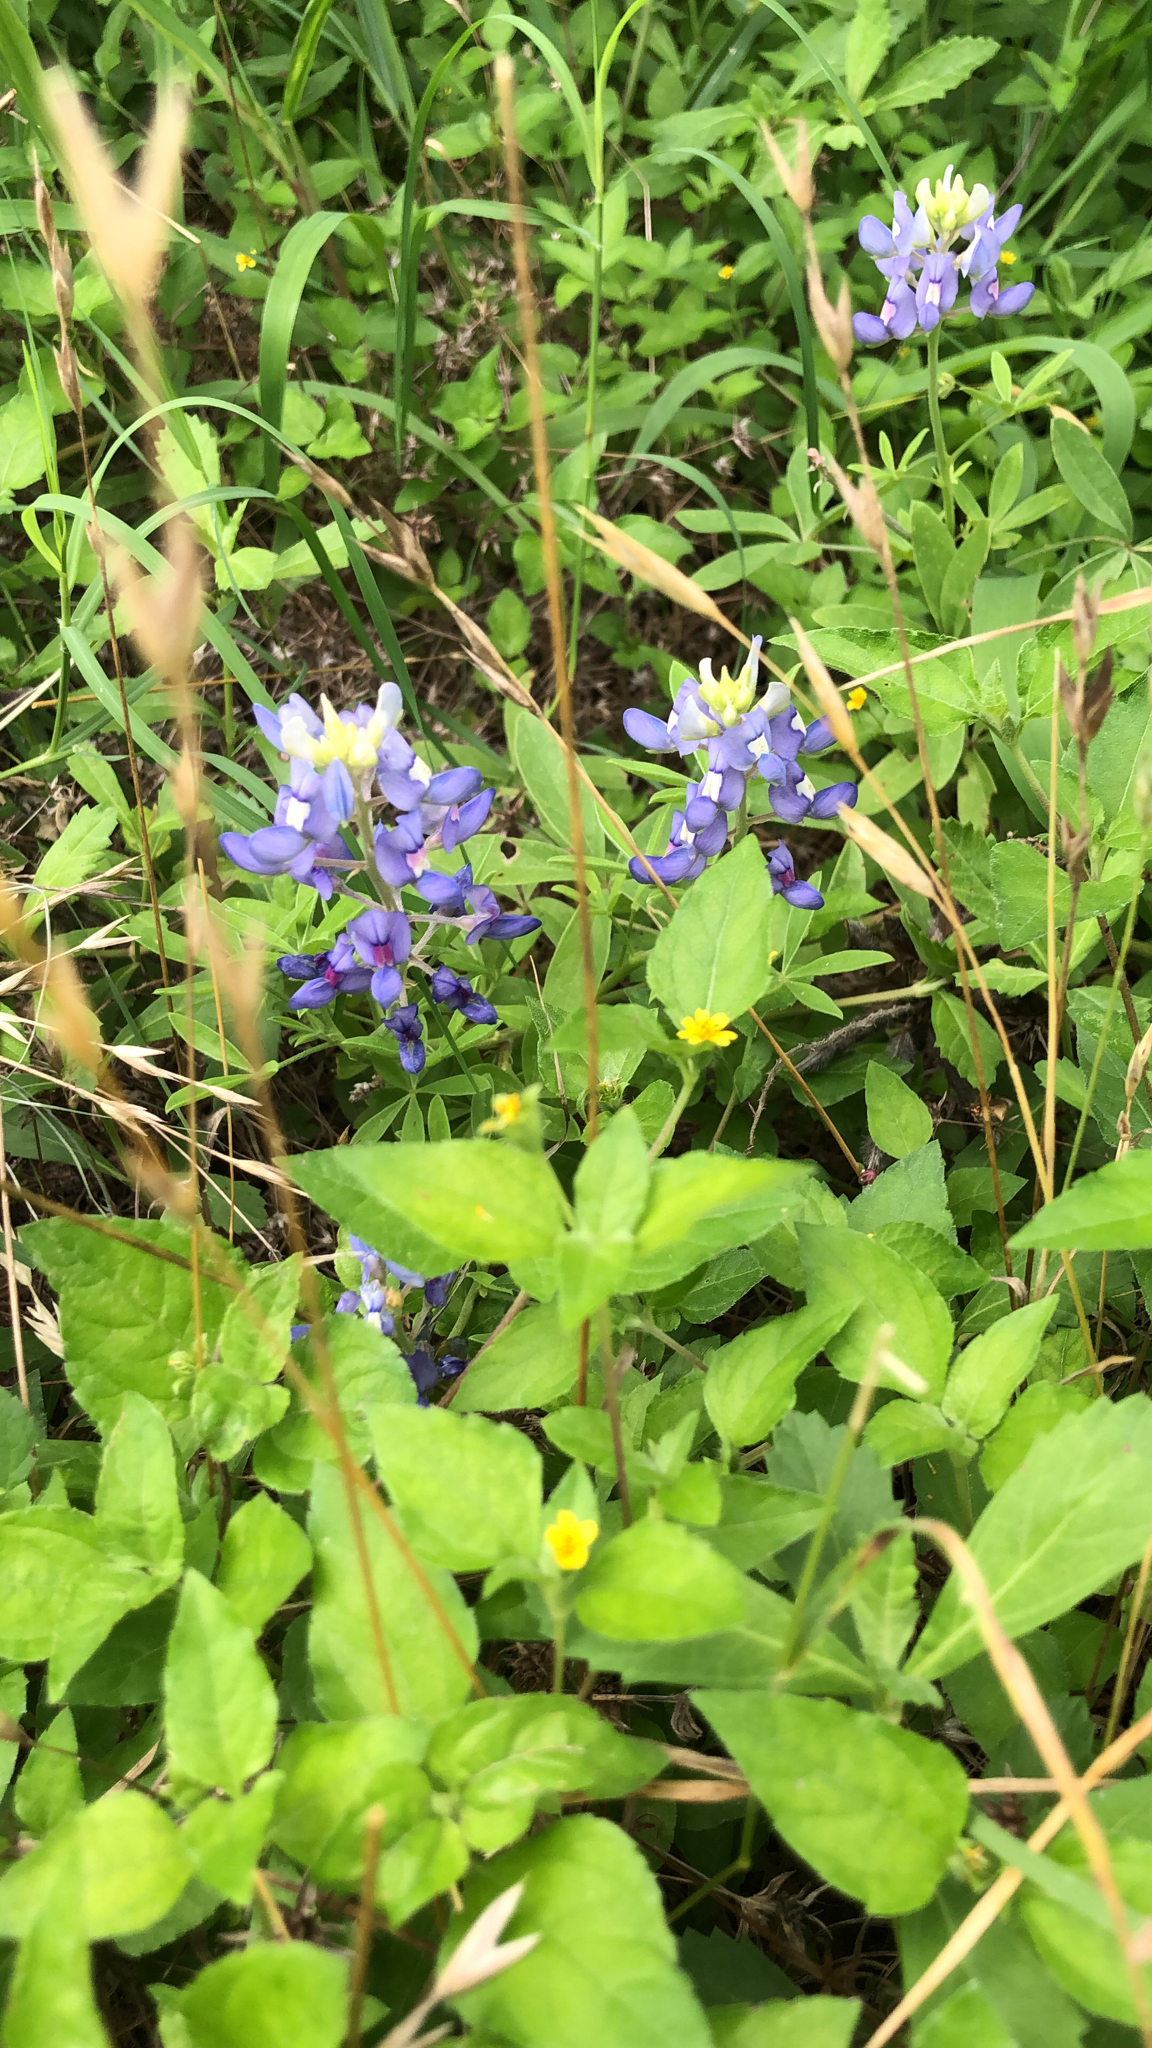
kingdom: Plantae
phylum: Tracheophyta
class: Magnoliopsida
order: Fabales
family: Fabaceae
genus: Lupinus
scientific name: Lupinus texensis
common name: Texas bluebonnet
